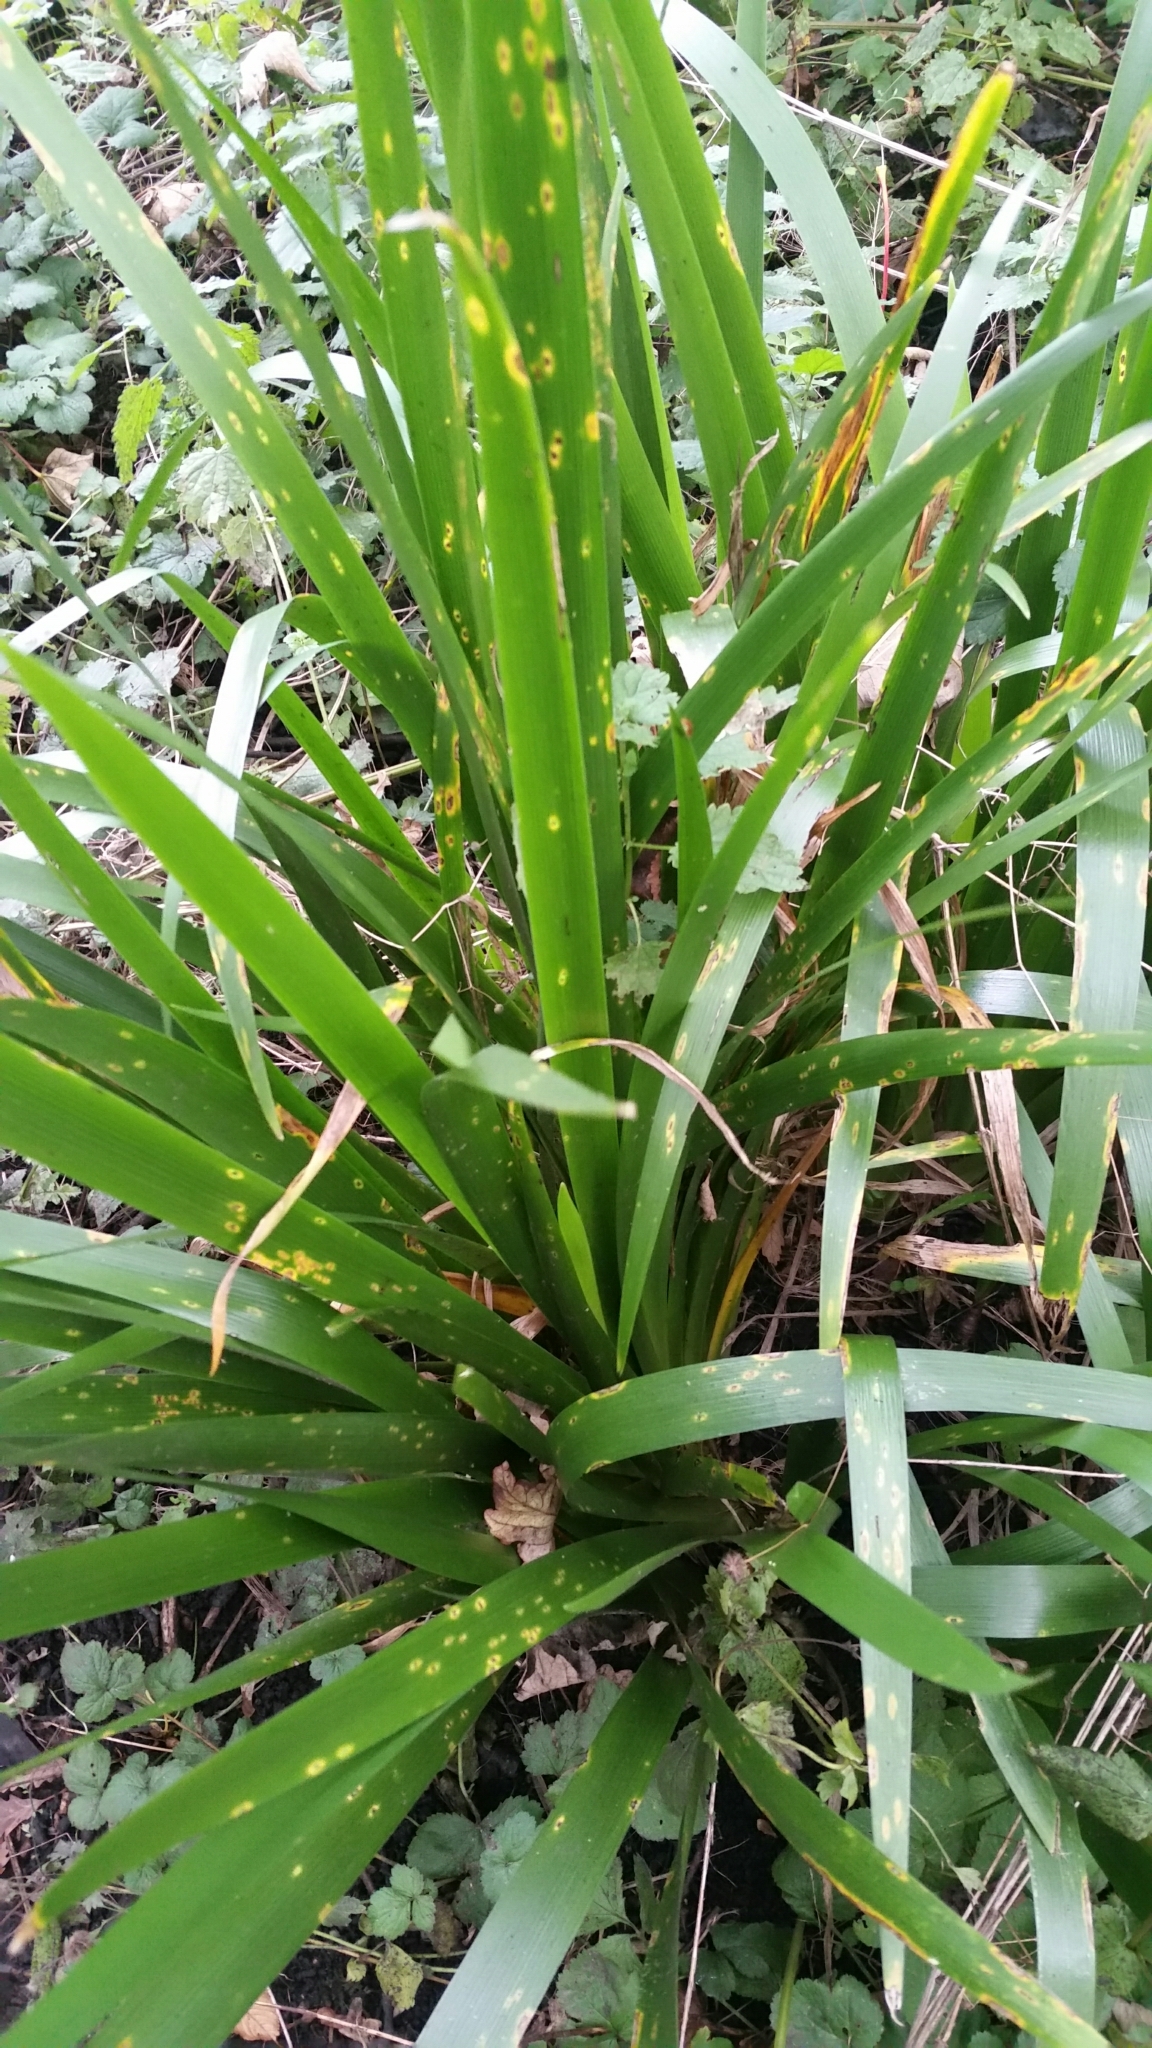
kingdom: Plantae
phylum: Tracheophyta
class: Liliopsida
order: Asparagales
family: Iridaceae
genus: Iris
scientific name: Iris foetidissima
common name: Stinking iris
